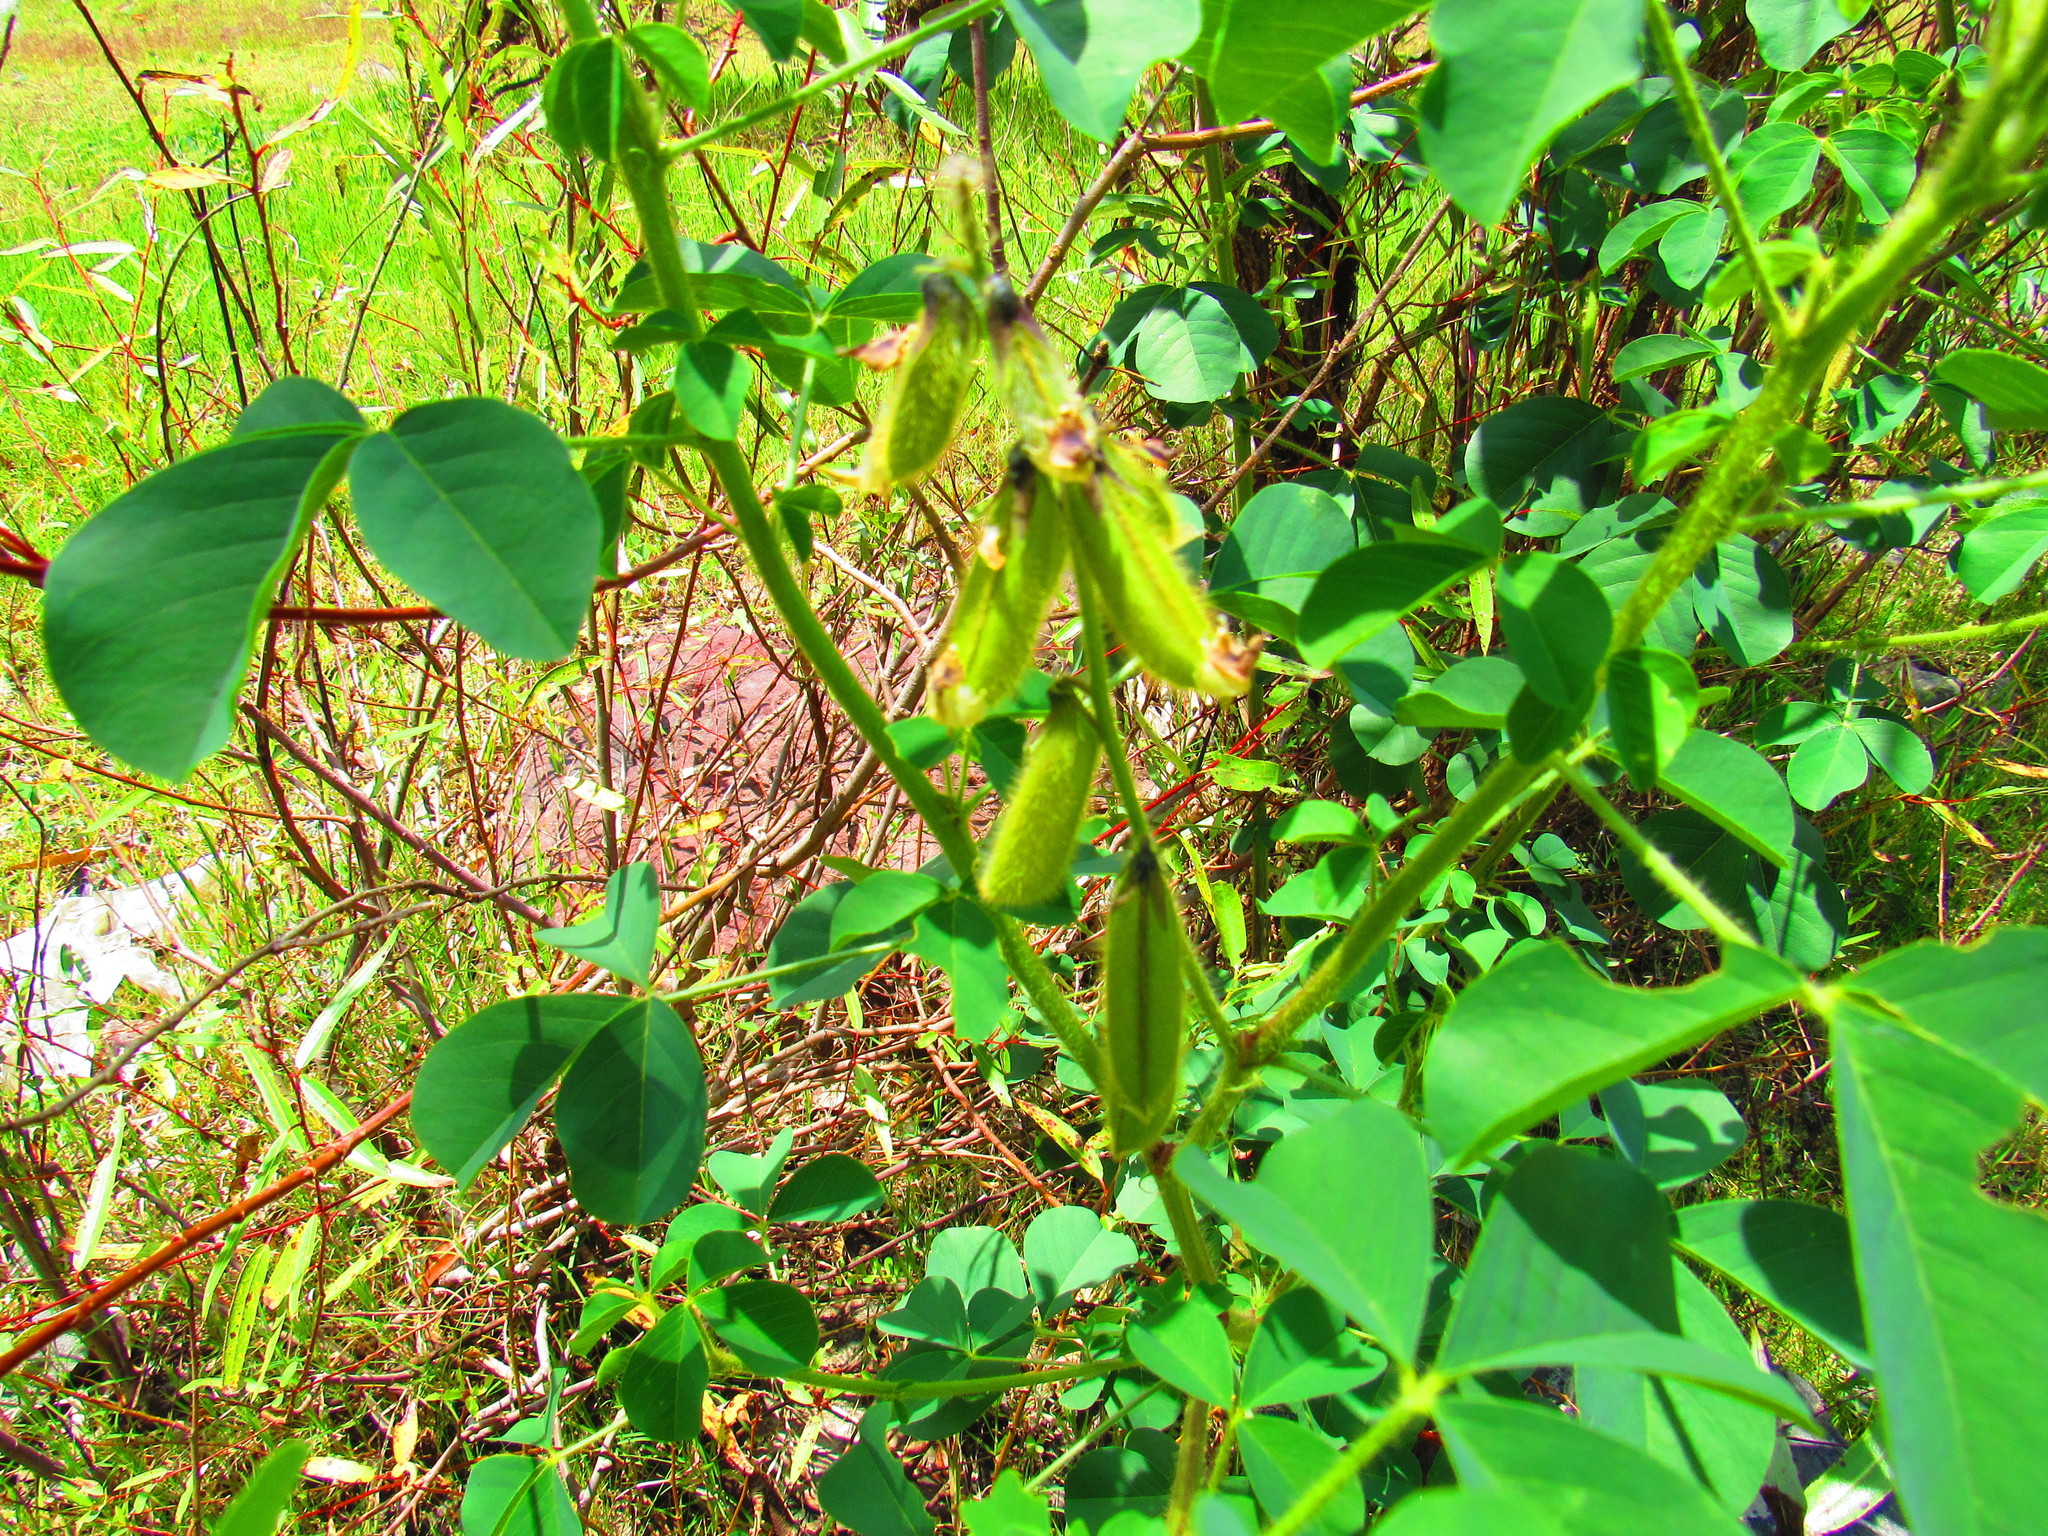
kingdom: Plantae
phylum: Tracheophyta
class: Magnoliopsida
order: Fabales
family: Fabaceae
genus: Crotalaria
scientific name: Crotalaria longirostrata
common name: Longbeak rattlebox
